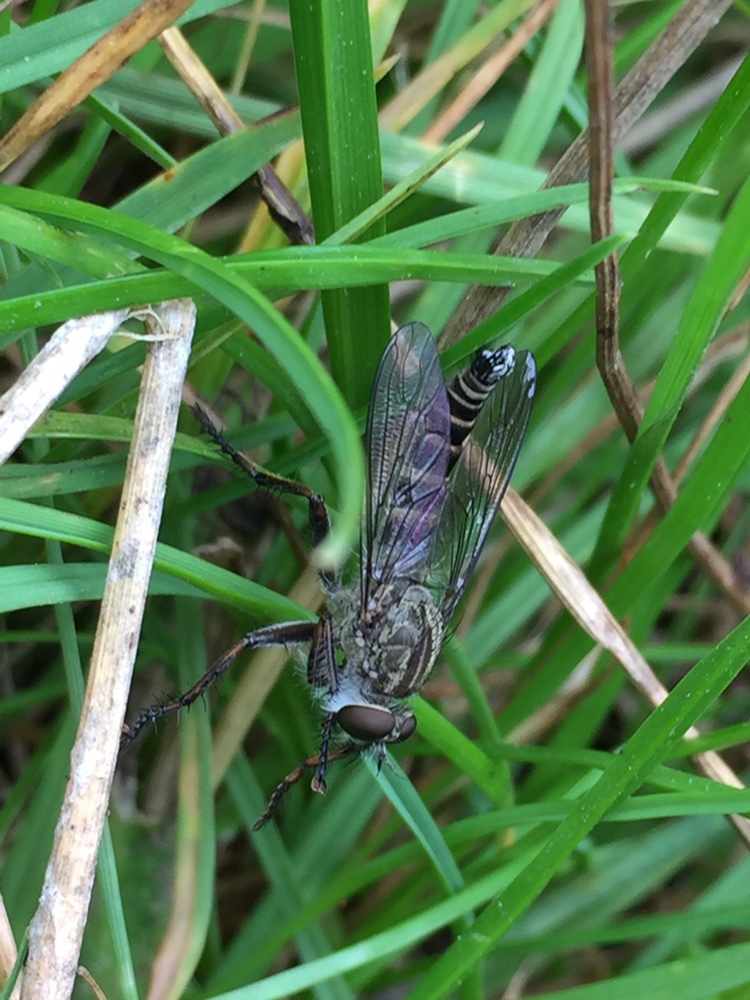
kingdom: Animalia
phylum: Arthropoda
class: Insecta
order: Diptera
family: Asilidae
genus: Machimus
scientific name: Machimus atricapillus
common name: Kite-tailed robberfly
